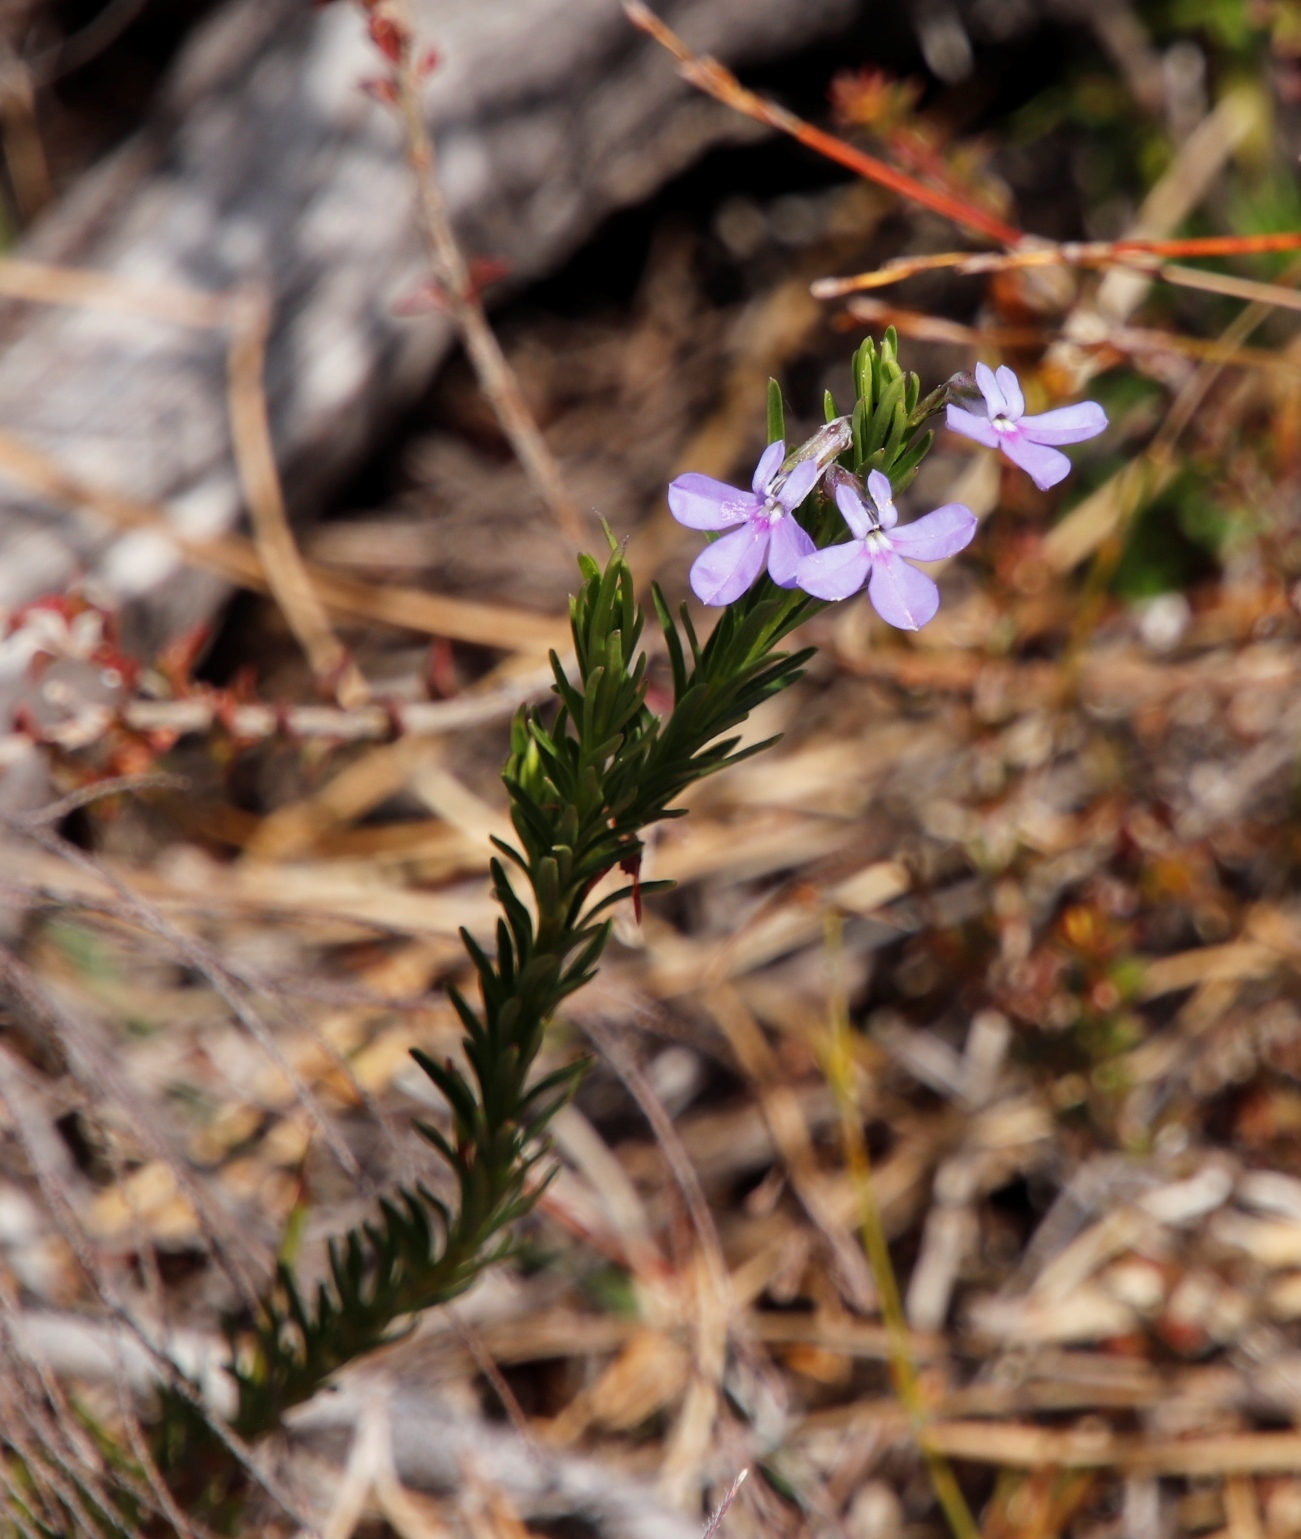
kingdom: Plantae
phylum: Tracheophyta
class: Magnoliopsida
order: Asterales
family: Campanulaceae
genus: Lobelia
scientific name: Lobelia pinifolia
